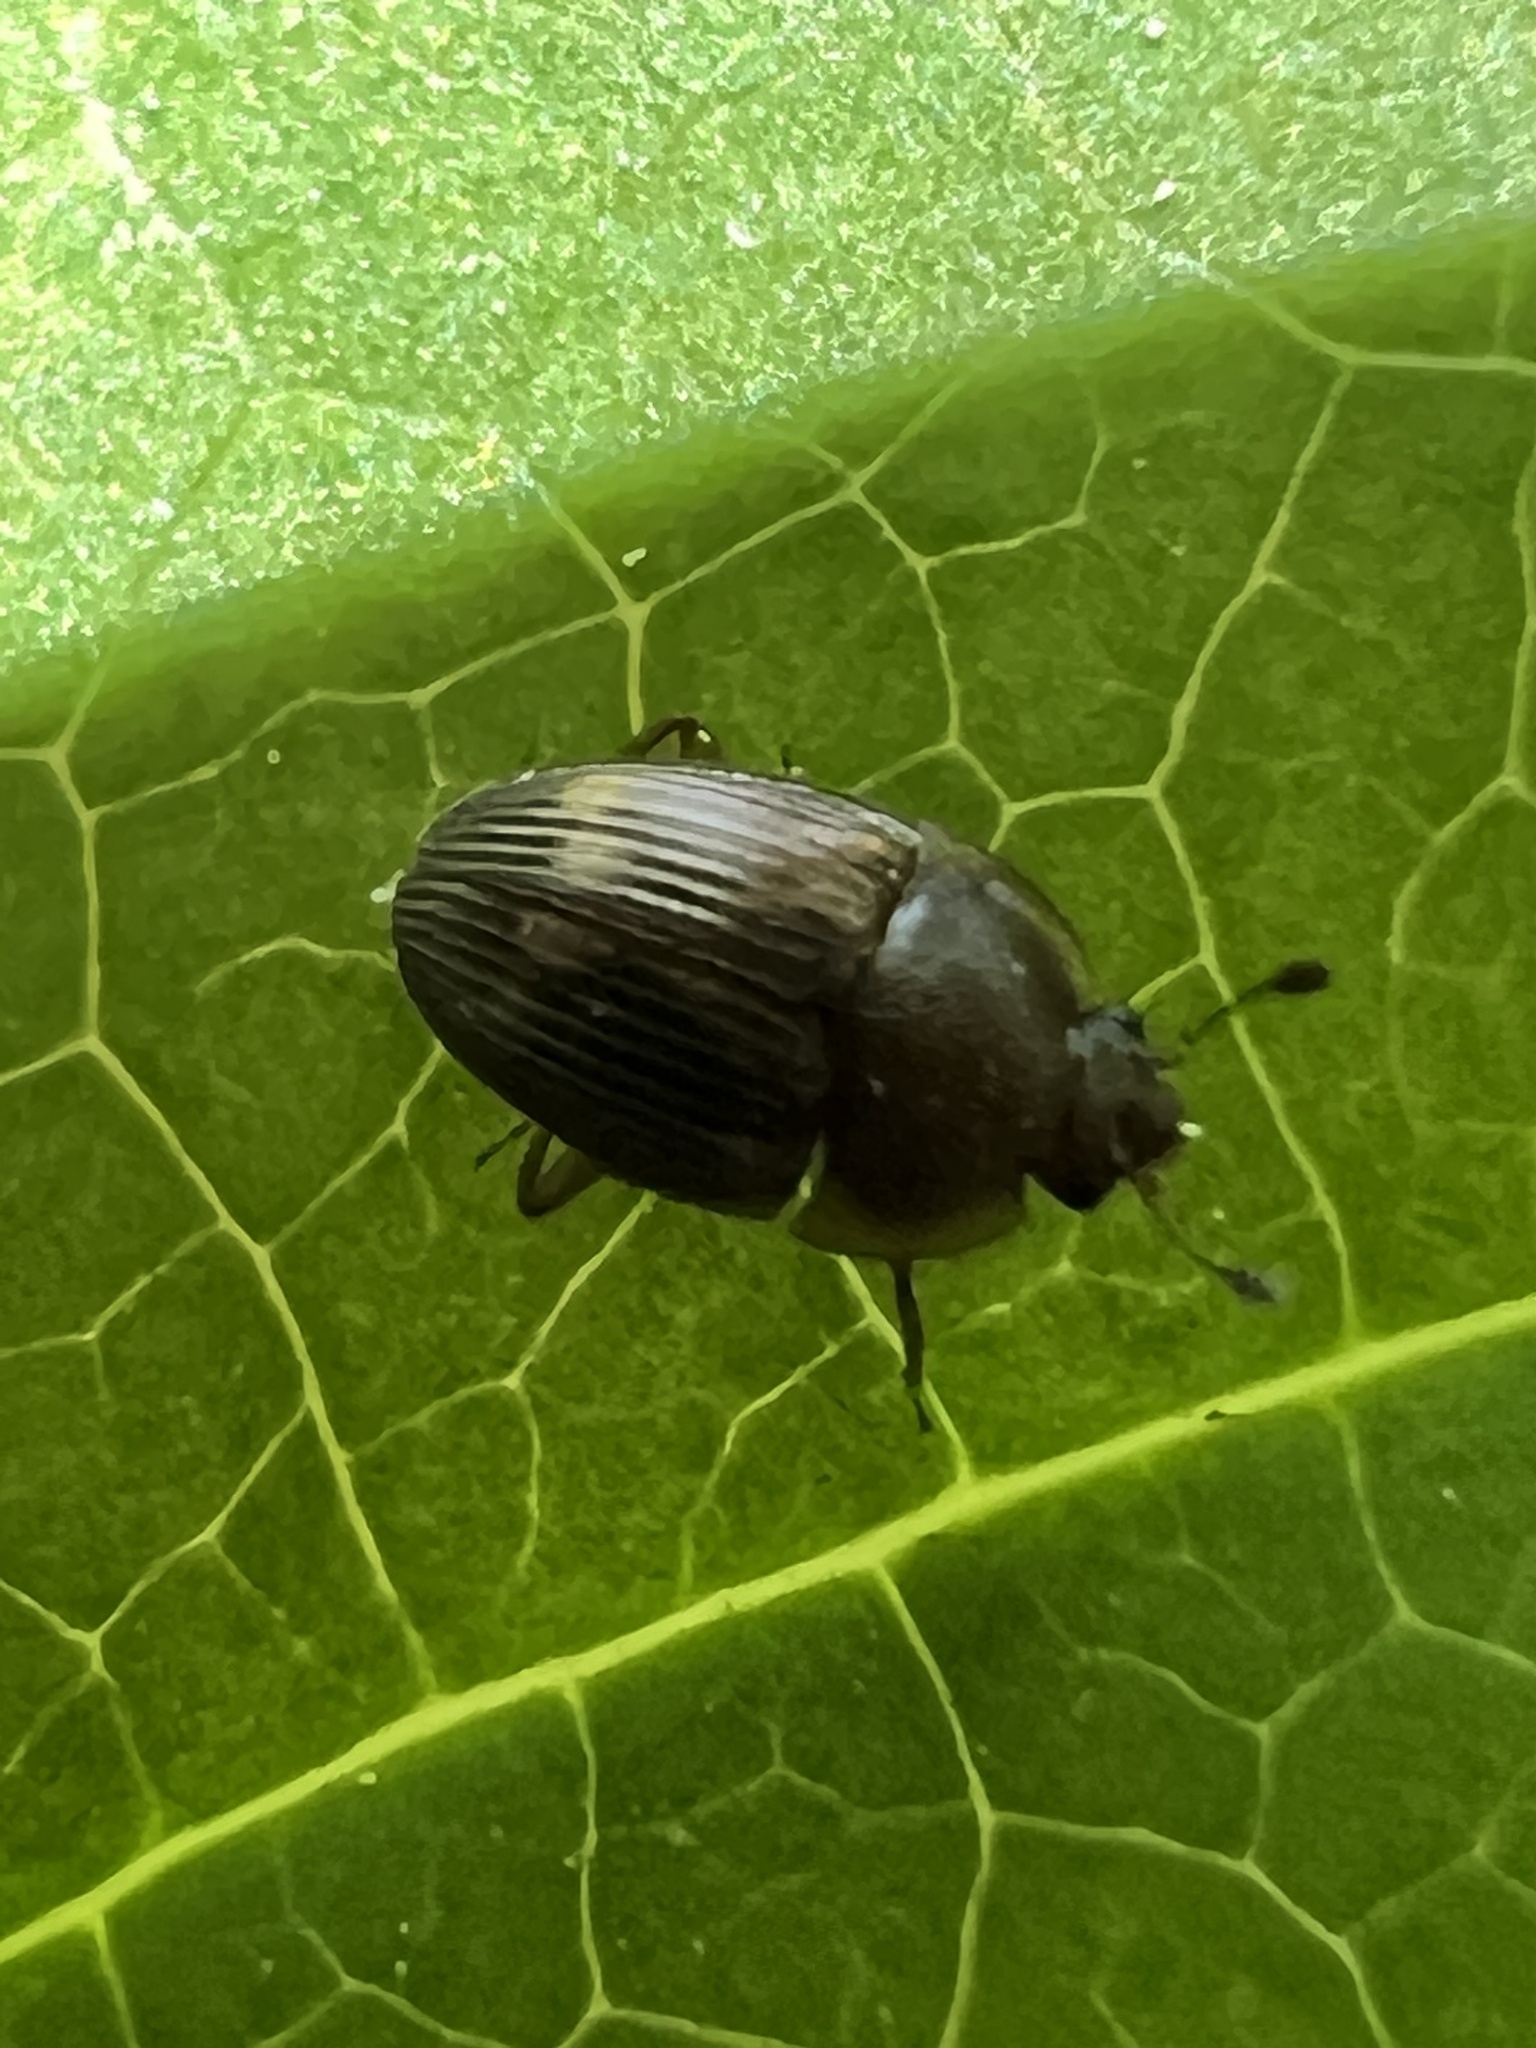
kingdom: Animalia
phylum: Arthropoda
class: Insecta
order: Coleoptera
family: Nitidulidae
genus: Stelidota
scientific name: Stelidota geminata
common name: Strawberry sap beetle
